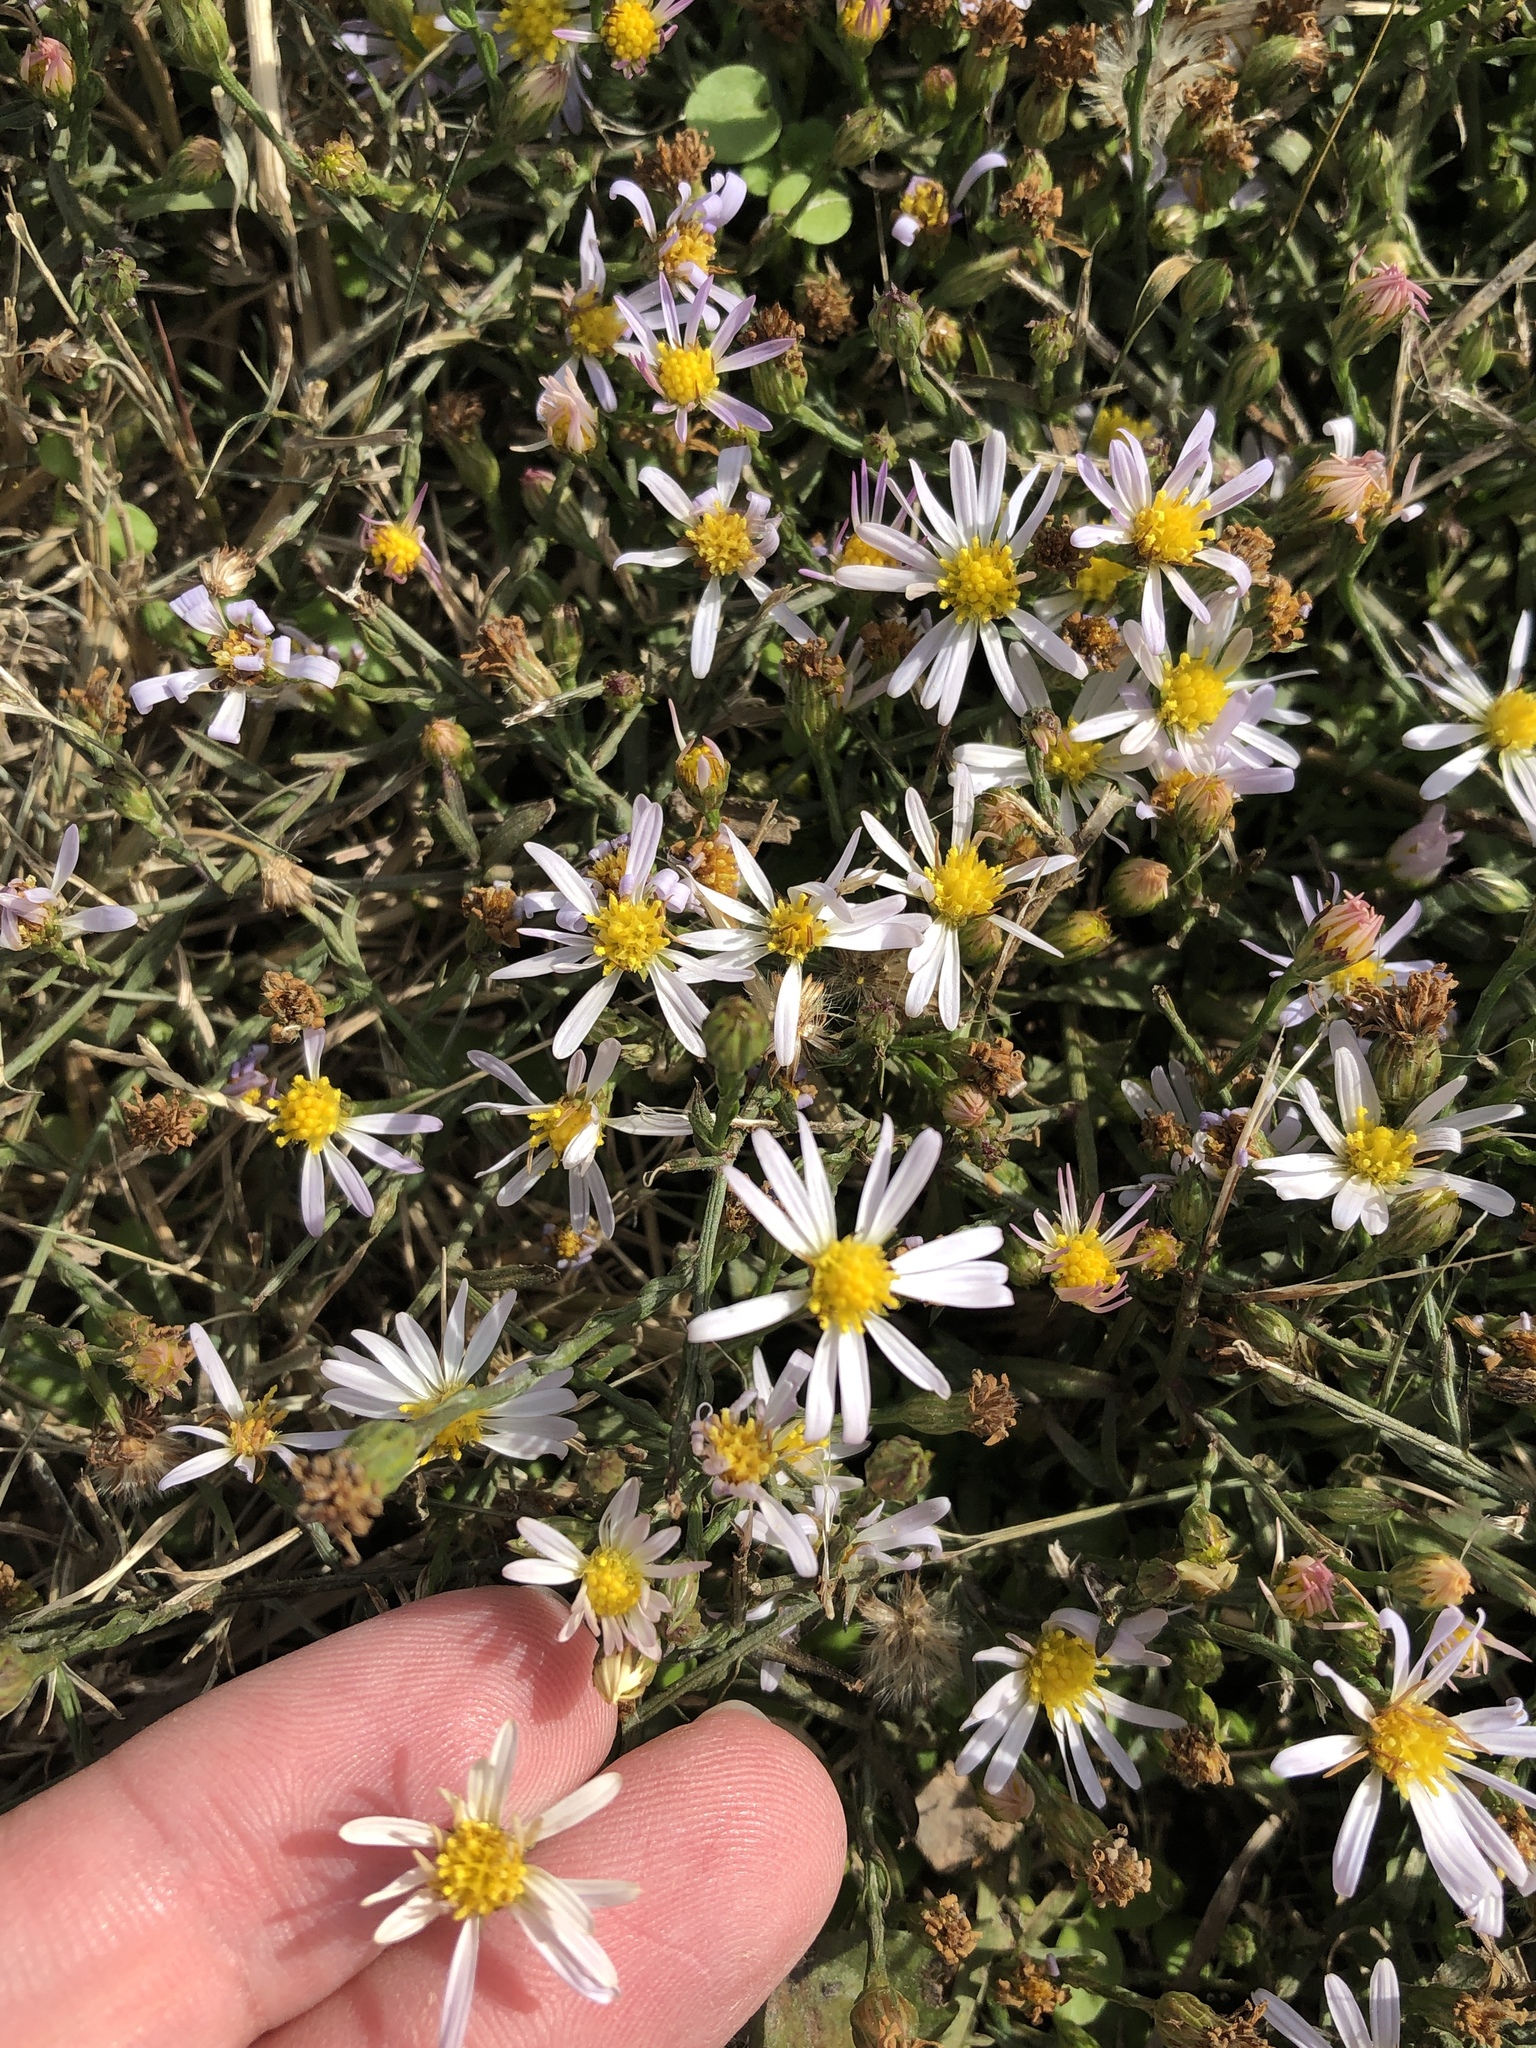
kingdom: Plantae
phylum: Tracheophyta
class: Magnoliopsida
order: Asterales
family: Asteraceae
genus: Symphyotrichum
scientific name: Symphyotrichum divaricatum
